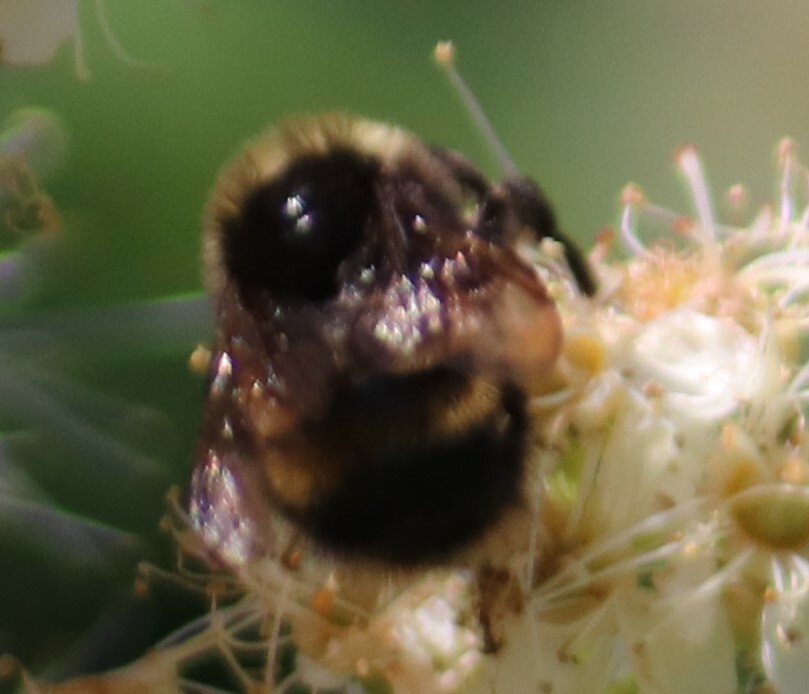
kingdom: Animalia
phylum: Arthropoda
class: Insecta
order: Hymenoptera
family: Apidae
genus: Bombus
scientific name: Bombus terricola
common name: Yellow-banded bumble bee
